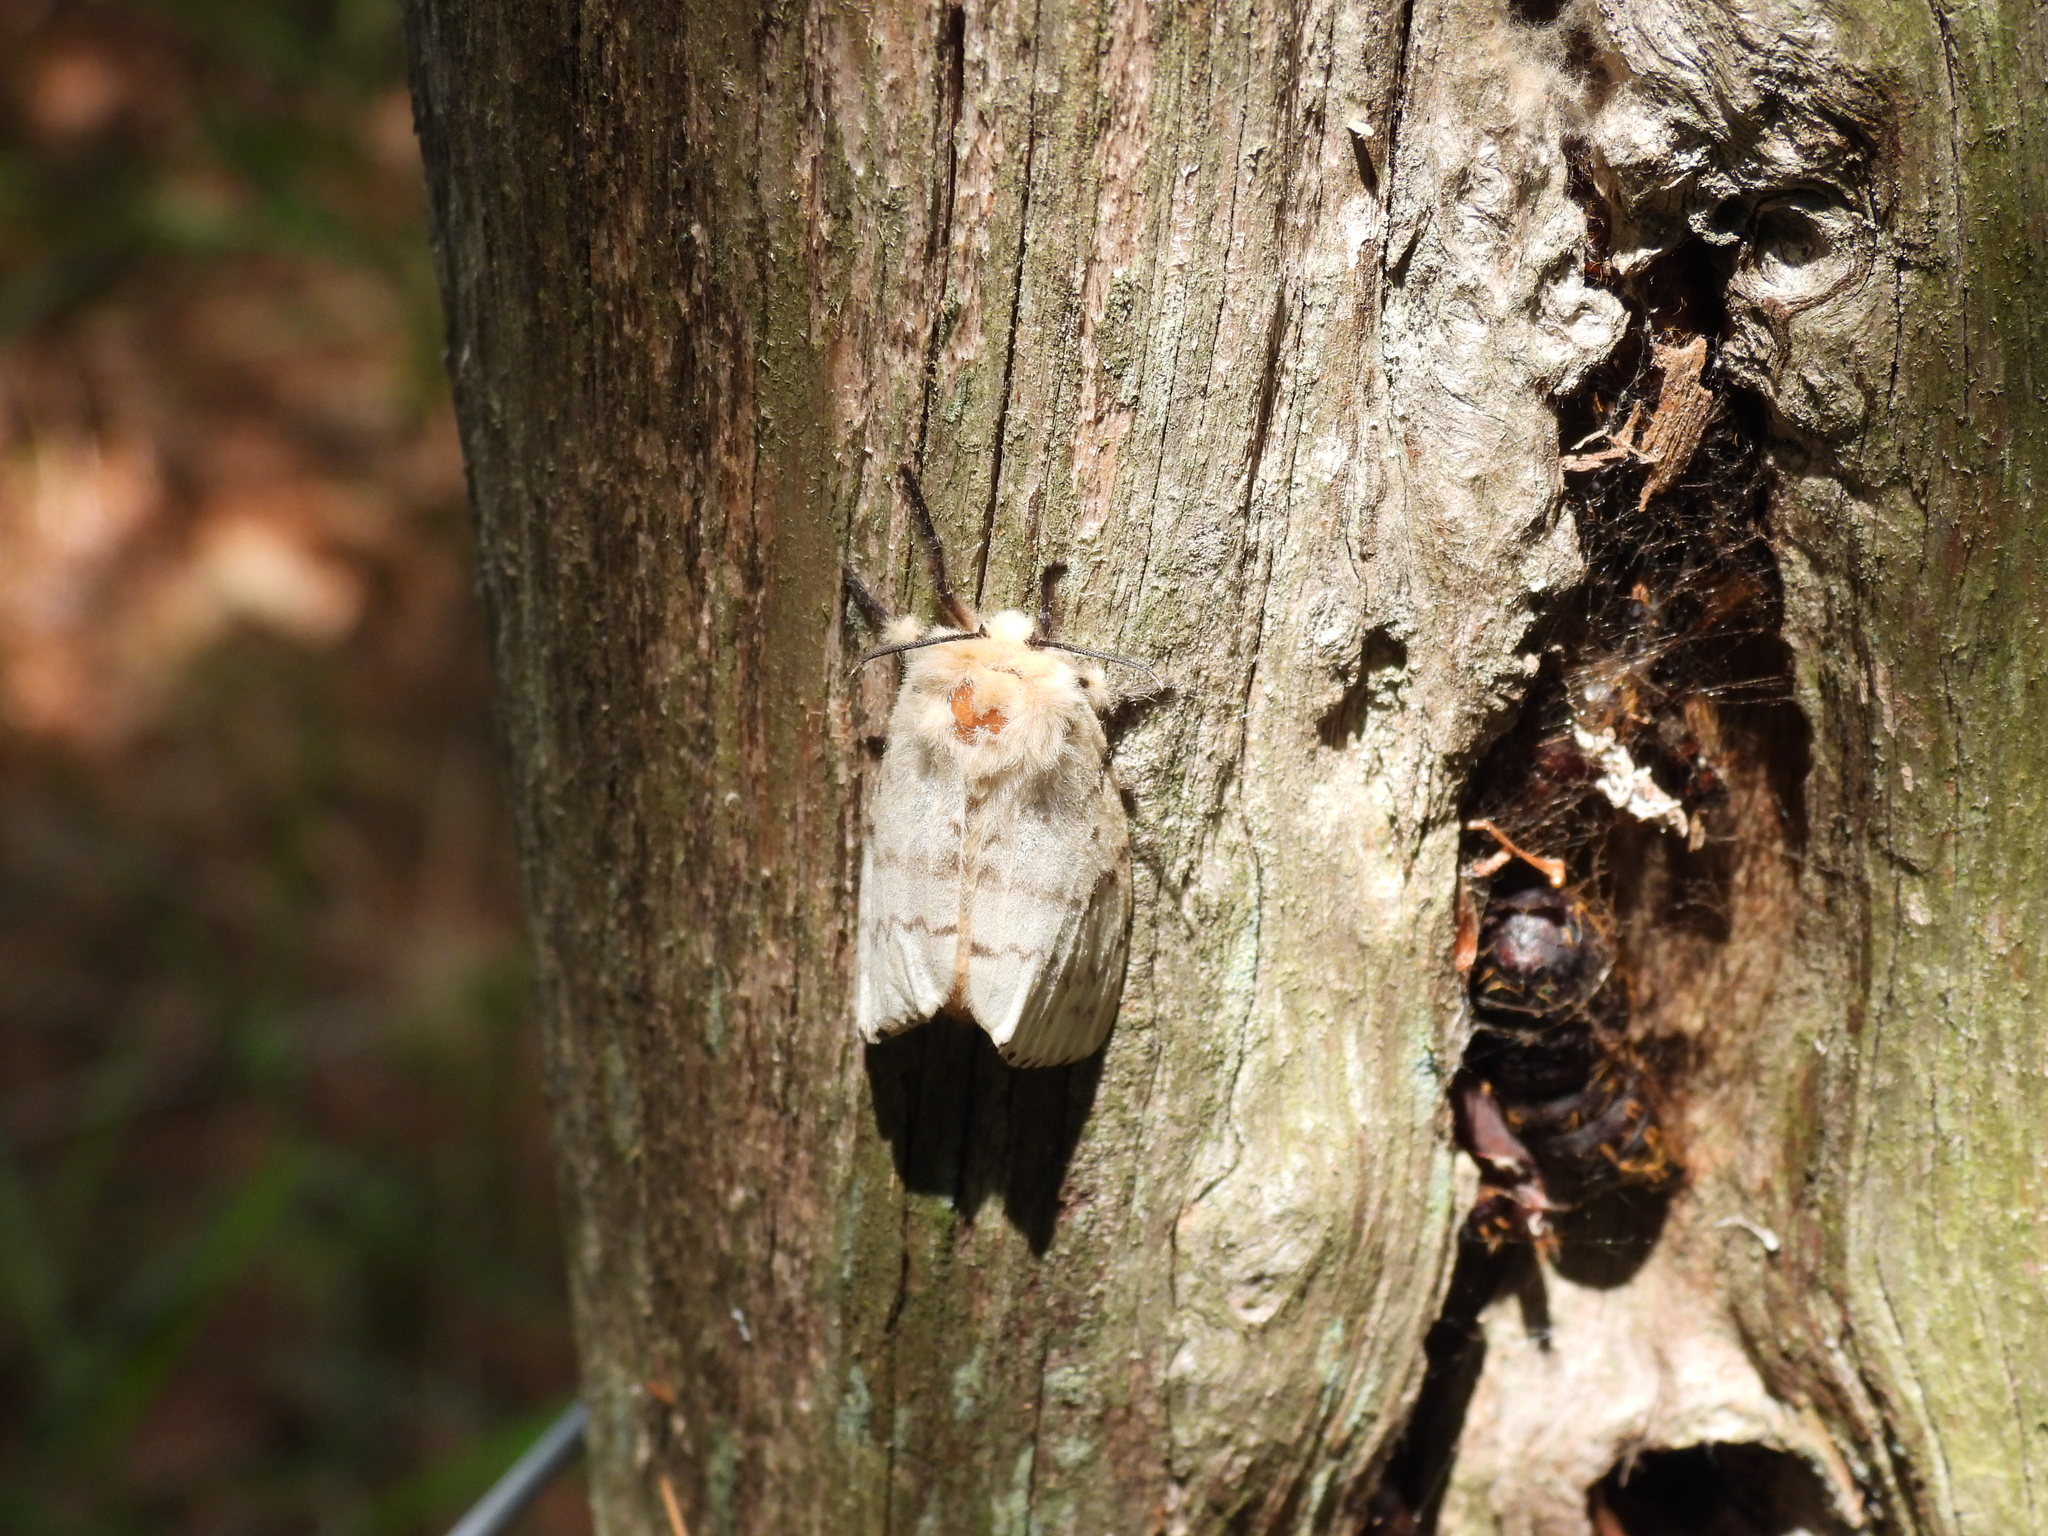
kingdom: Animalia
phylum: Arthropoda
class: Insecta
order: Lepidoptera
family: Erebidae
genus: Lymantria
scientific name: Lymantria dispar
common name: Gypsy moth
